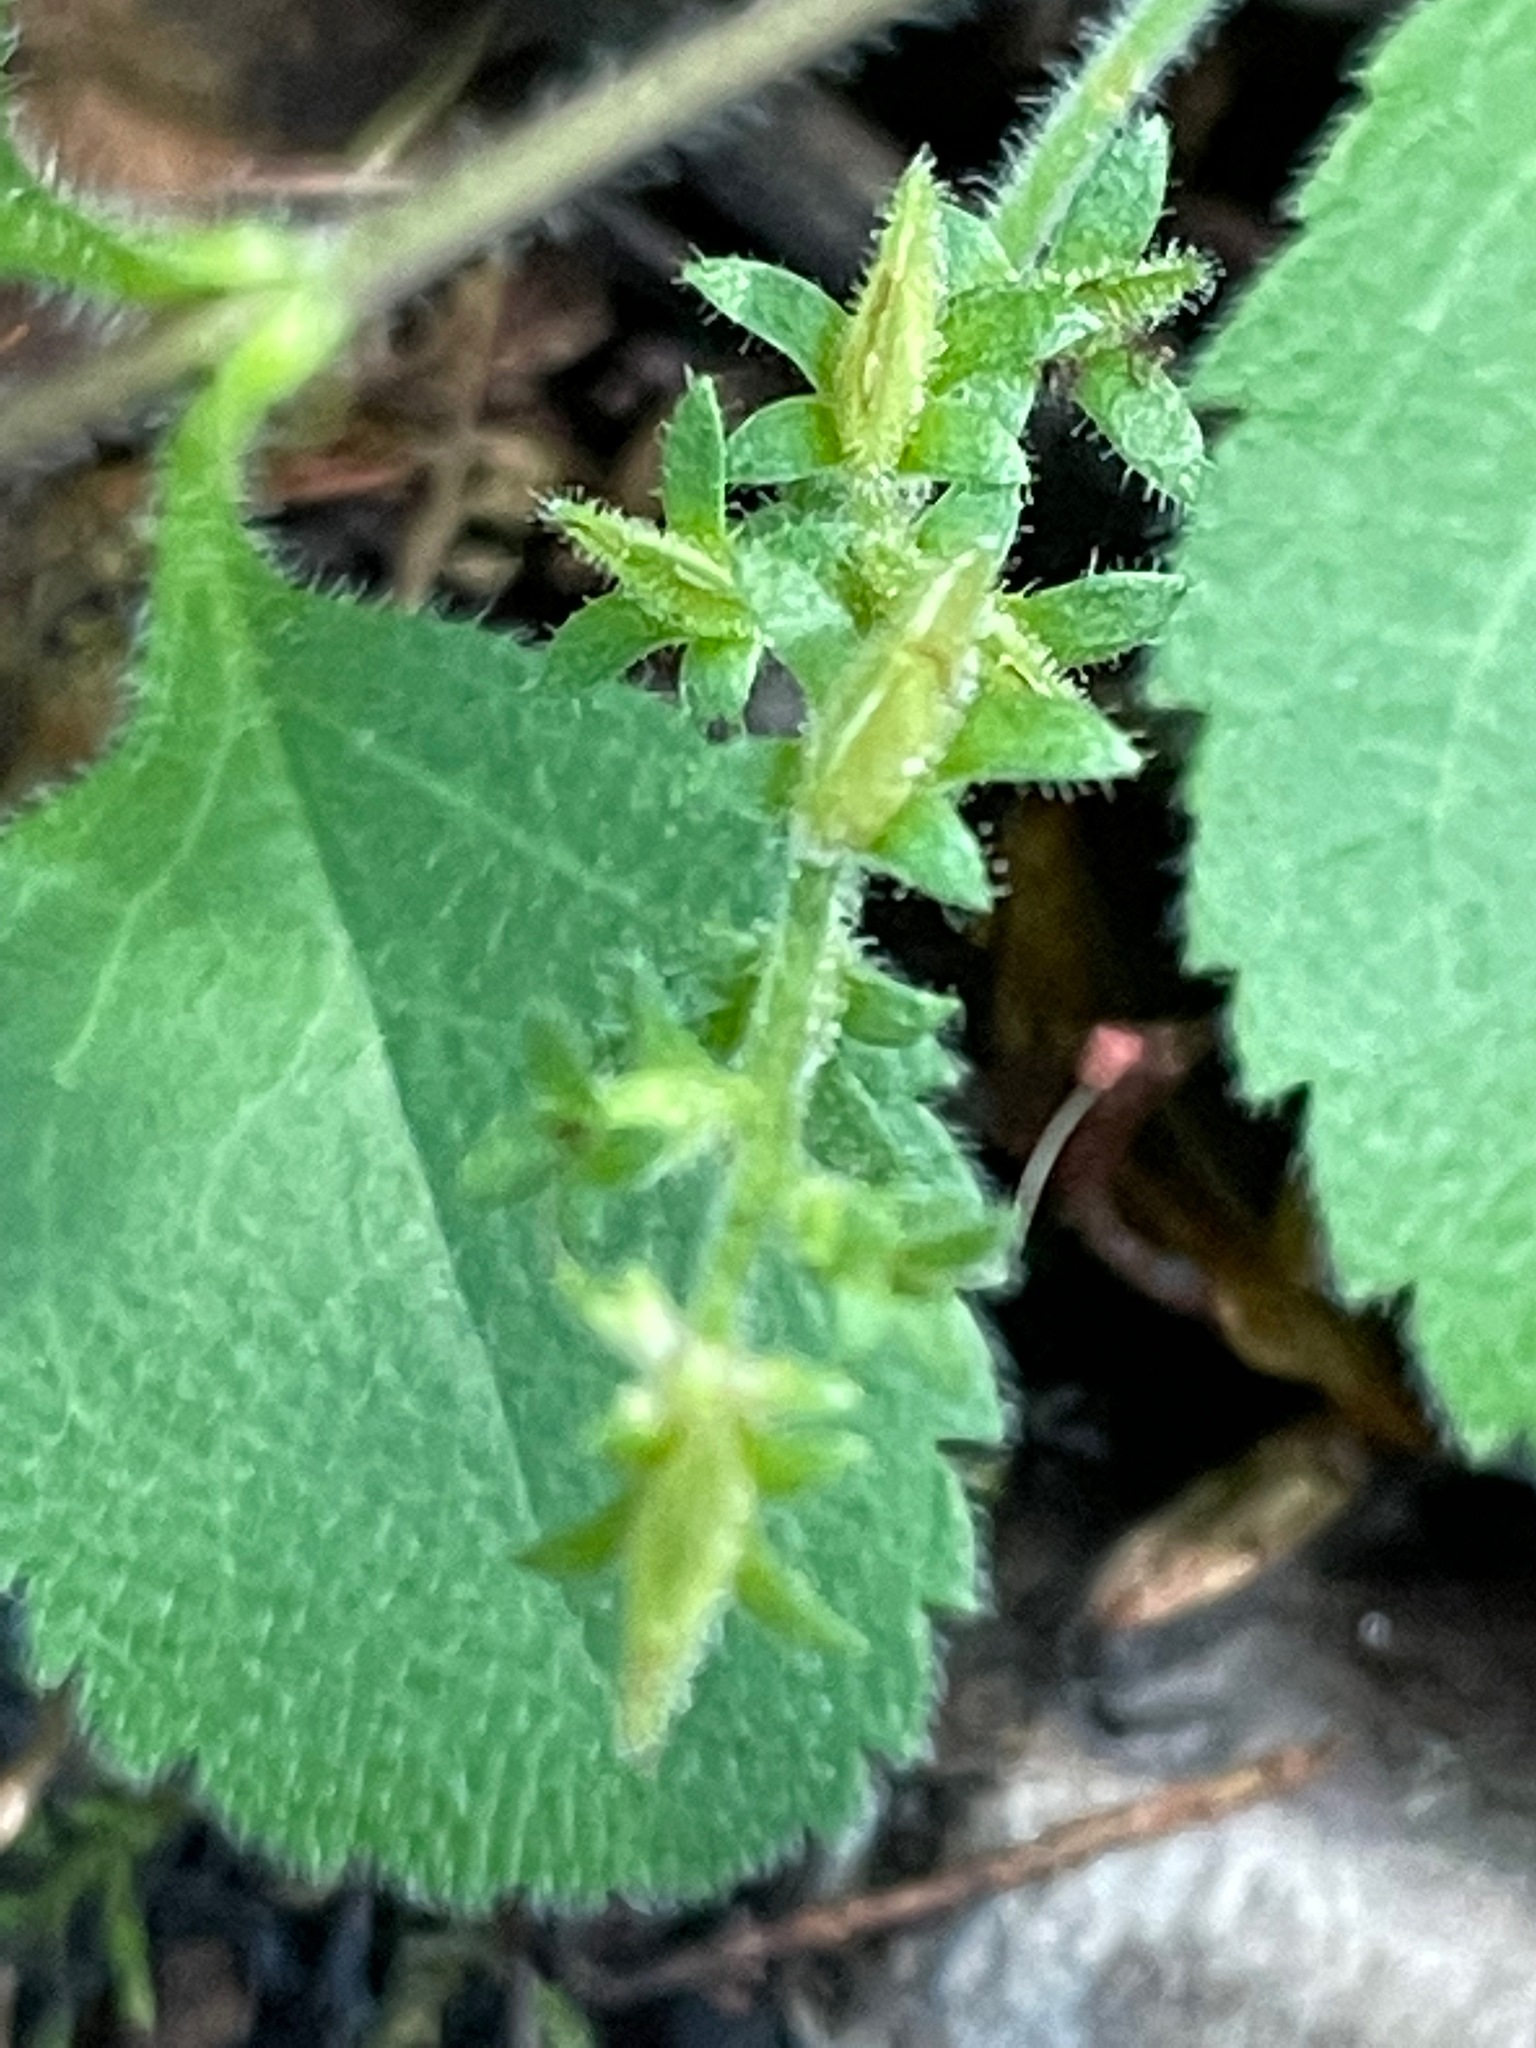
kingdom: Plantae
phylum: Tracheophyta
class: Magnoliopsida
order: Lamiales
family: Plantaginaceae
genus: Veronica
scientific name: Veronica officinalis
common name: Common speedwell
